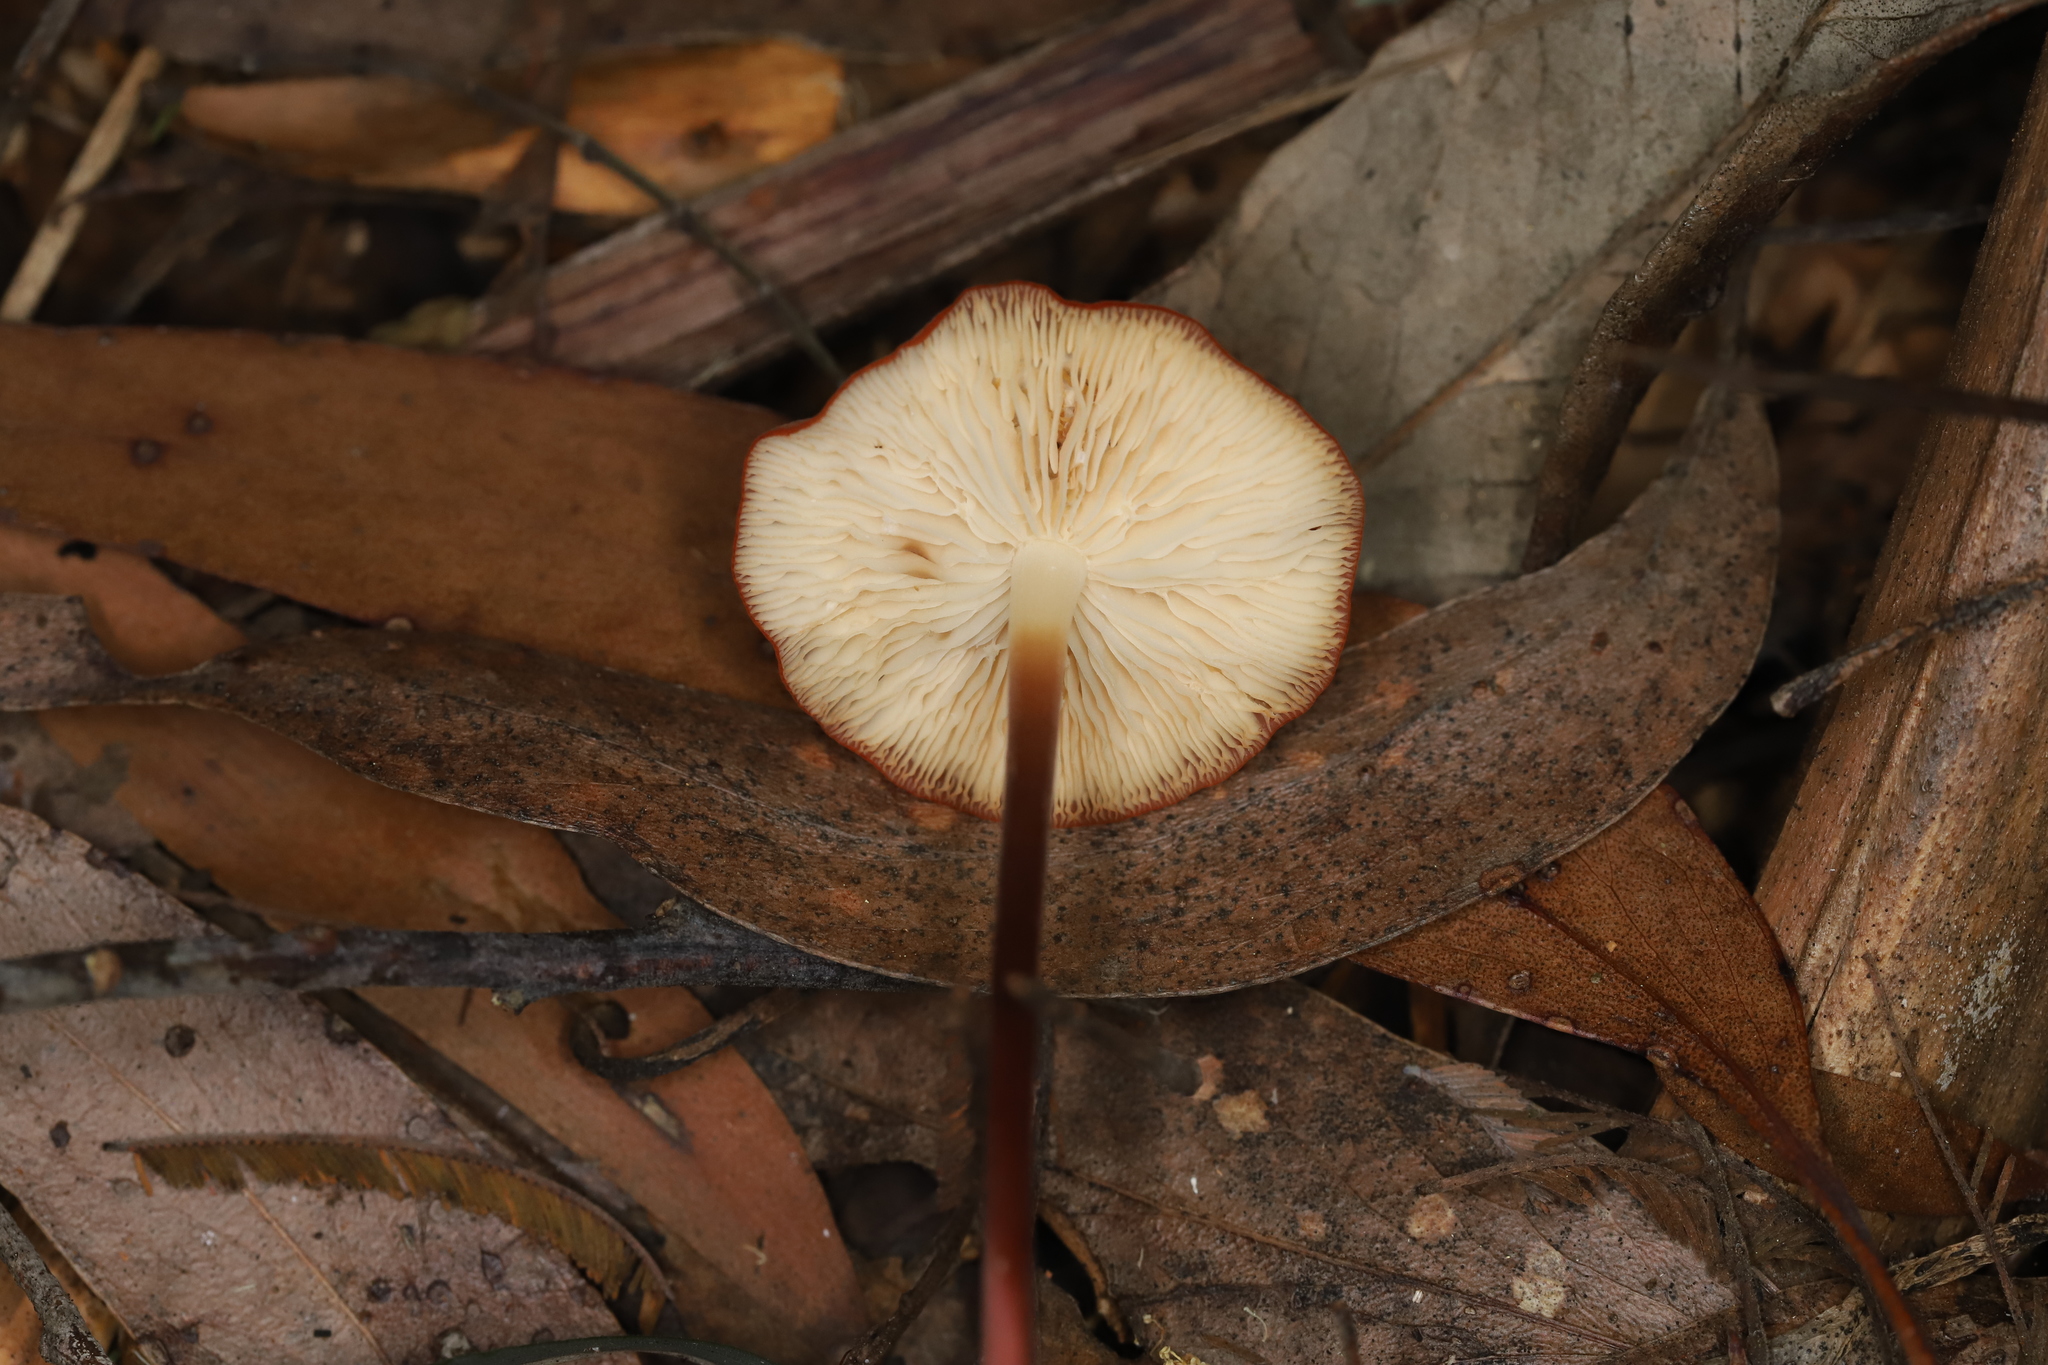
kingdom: Fungi
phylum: Basidiomycota
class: Agaricomycetes
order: Agaricales
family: Marasmiaceae
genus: Marasmius
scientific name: Marasmius elegans
